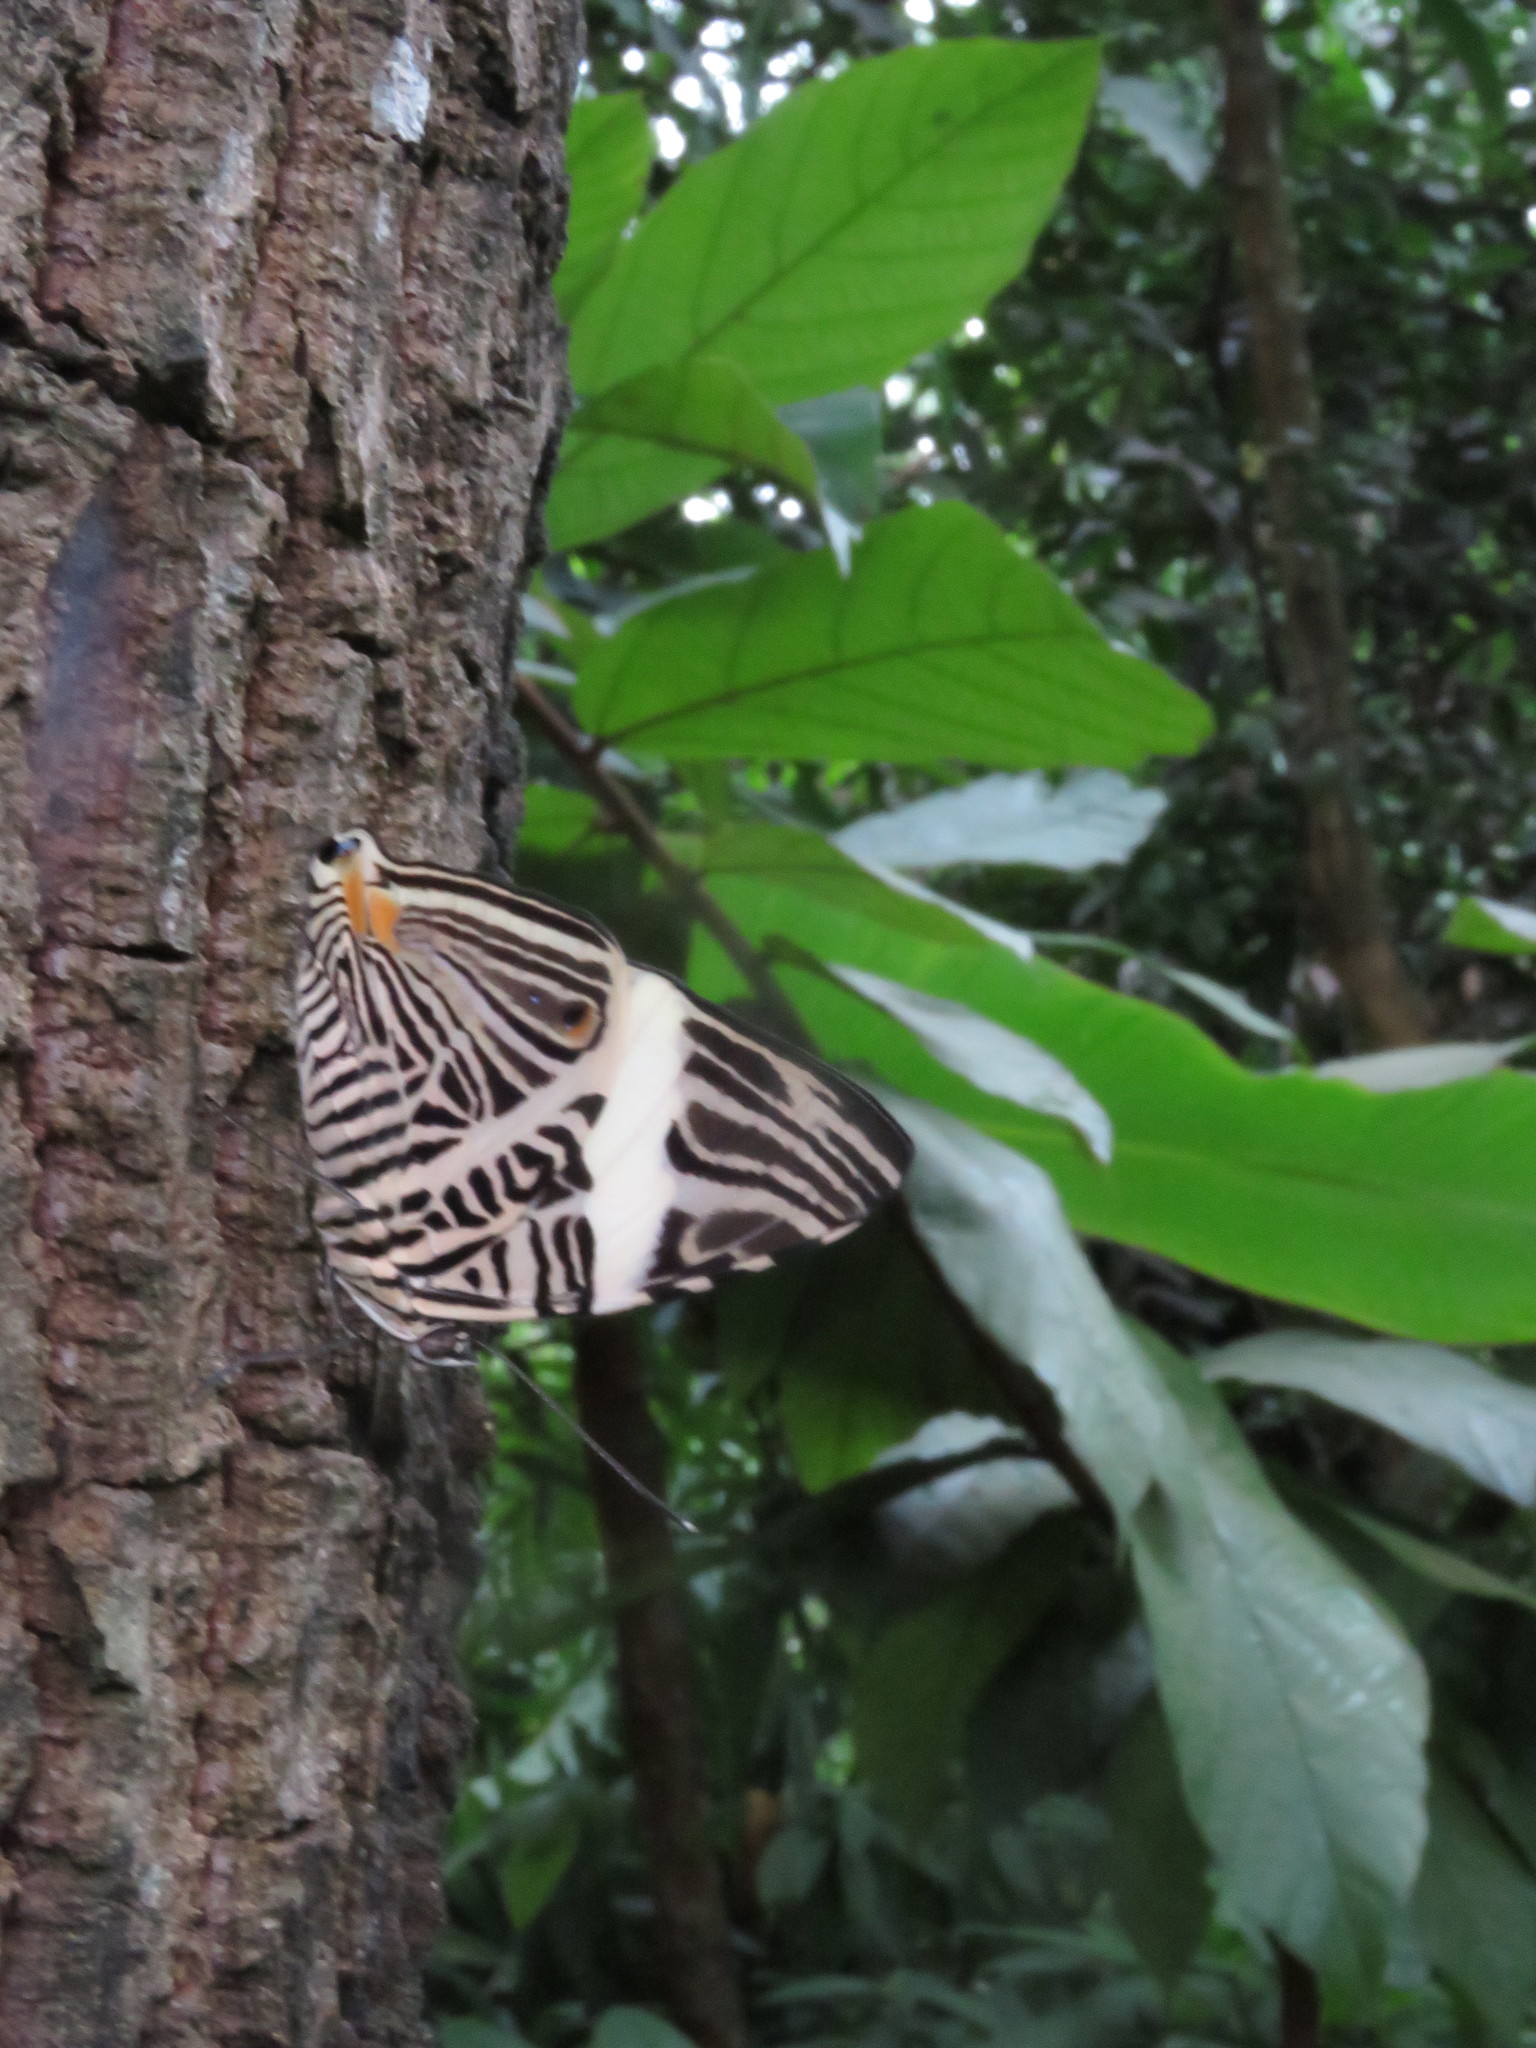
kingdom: Animalia
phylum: Arthropoda
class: Insecta
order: Lepidoptera
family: Nymphalidae
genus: Colobura
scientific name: Colobura dirce
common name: Dirce beauty
